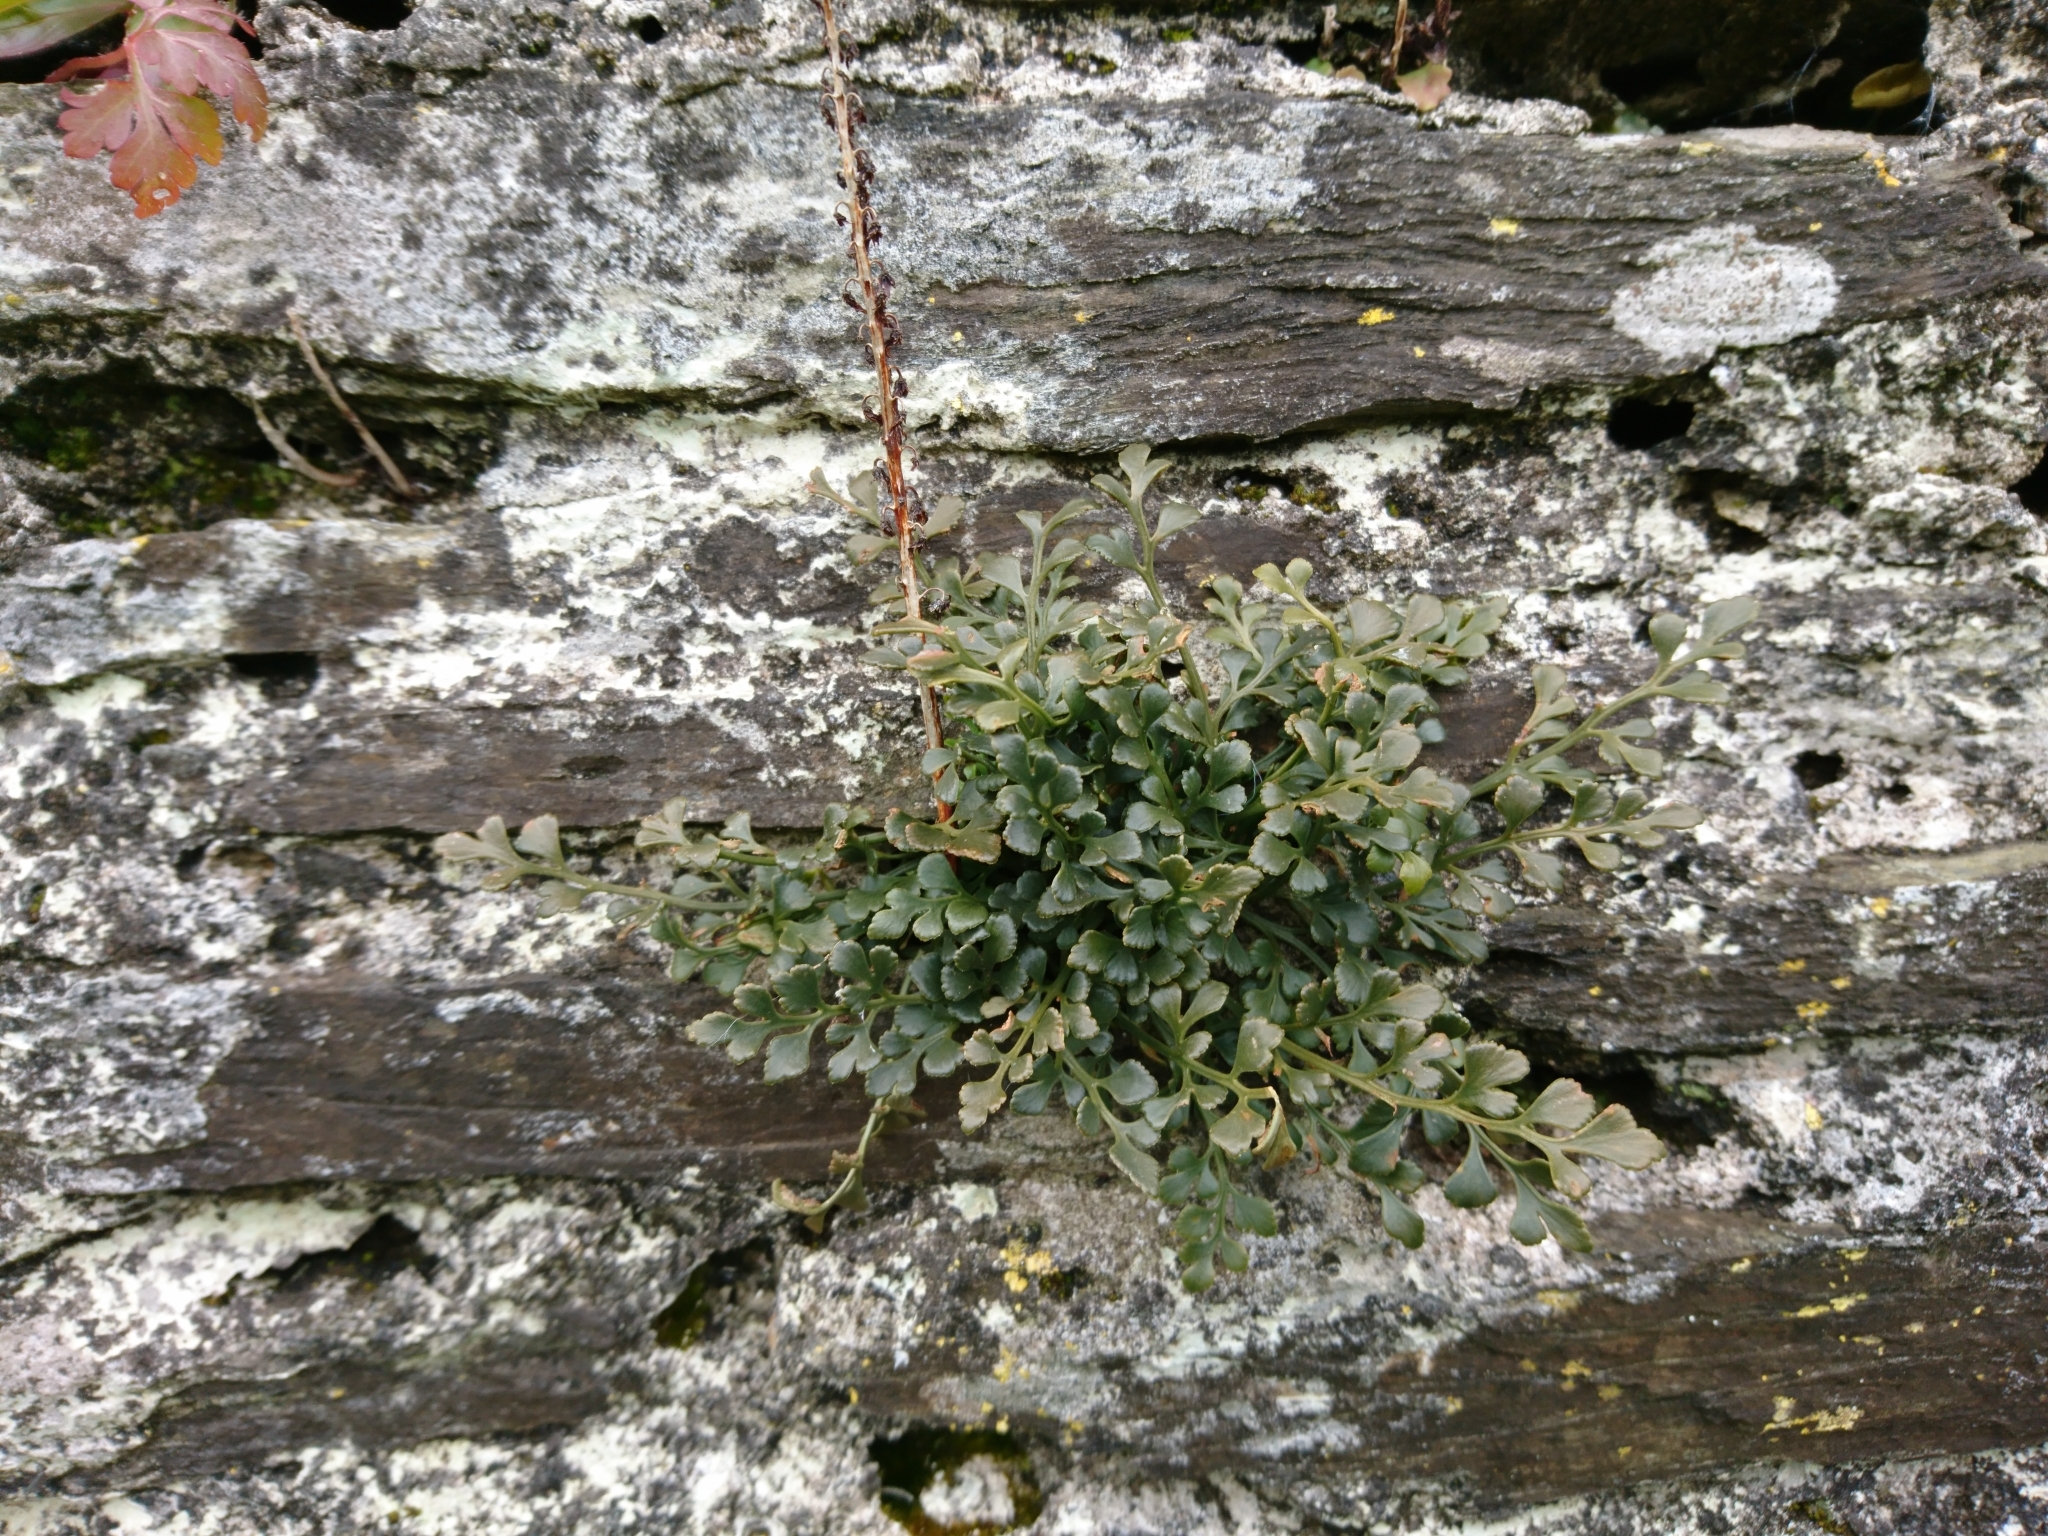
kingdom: Plantae
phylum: Tracheophyta
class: Polypodiopsida
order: Polypodiales
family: Aspleniaceae
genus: Asplenium
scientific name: Asplenium ruta-muraria
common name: Wall-rue
